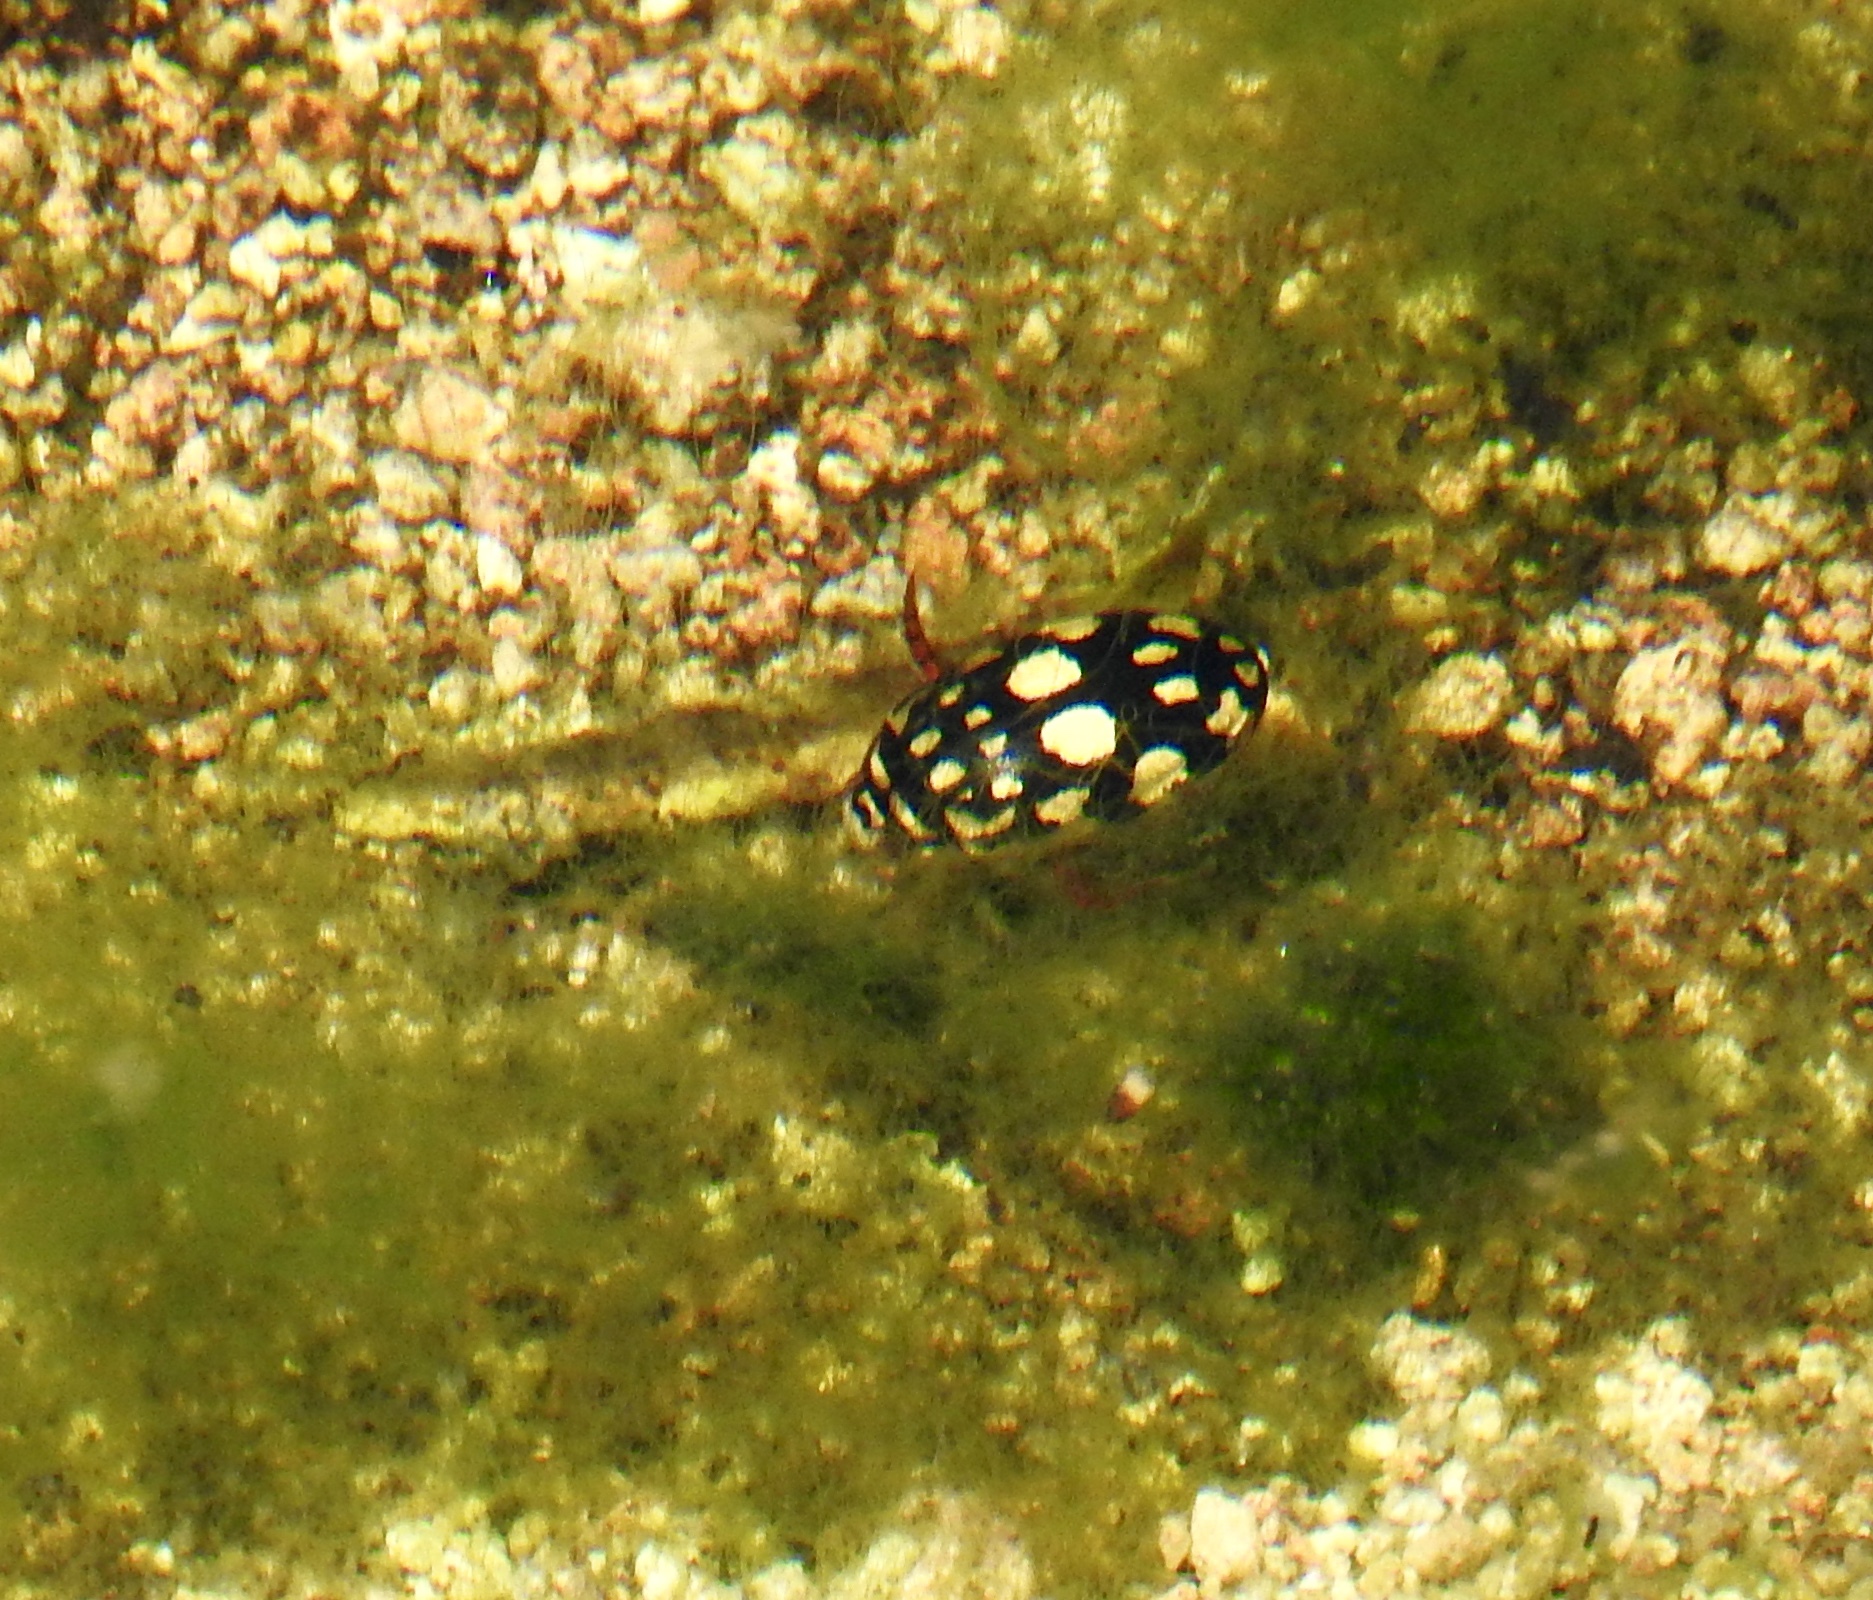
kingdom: Animalia
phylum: Arthropoda
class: Insecta
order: Coleoptera
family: Dytiscidae
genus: Thermonectus
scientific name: Thermonectus marmoratus
